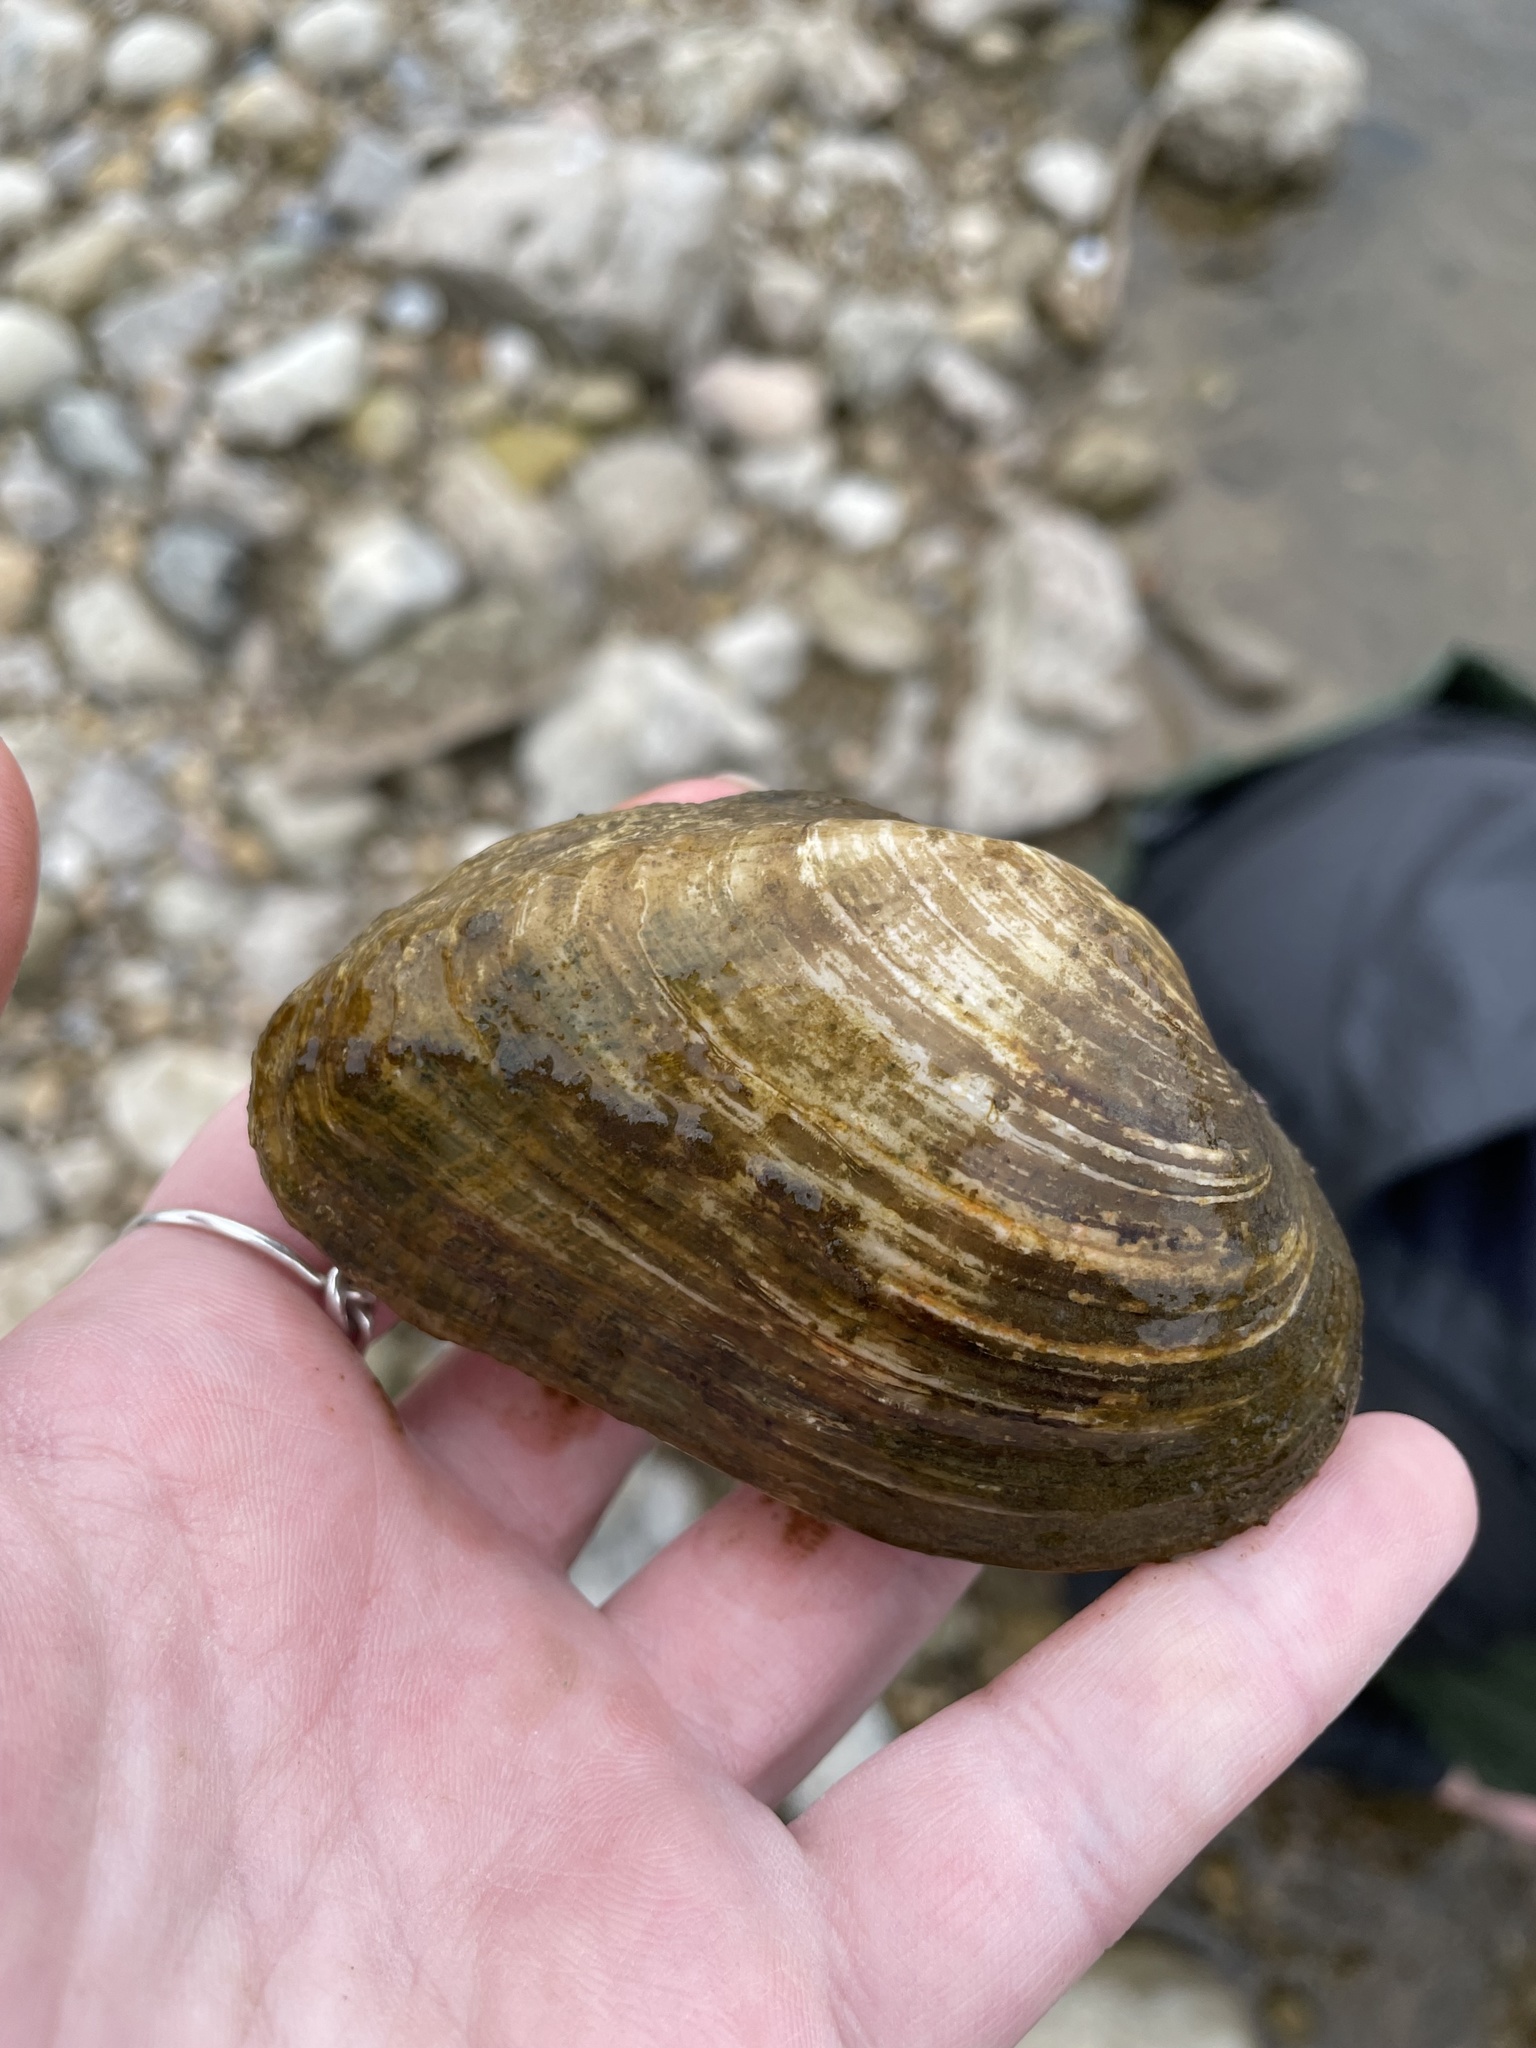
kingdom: Animalia
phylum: Mollusca
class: Bivalvia
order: Unionida
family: Unionidae
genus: Alasmidonta
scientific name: Alasmidonta marginata
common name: Elktoe
